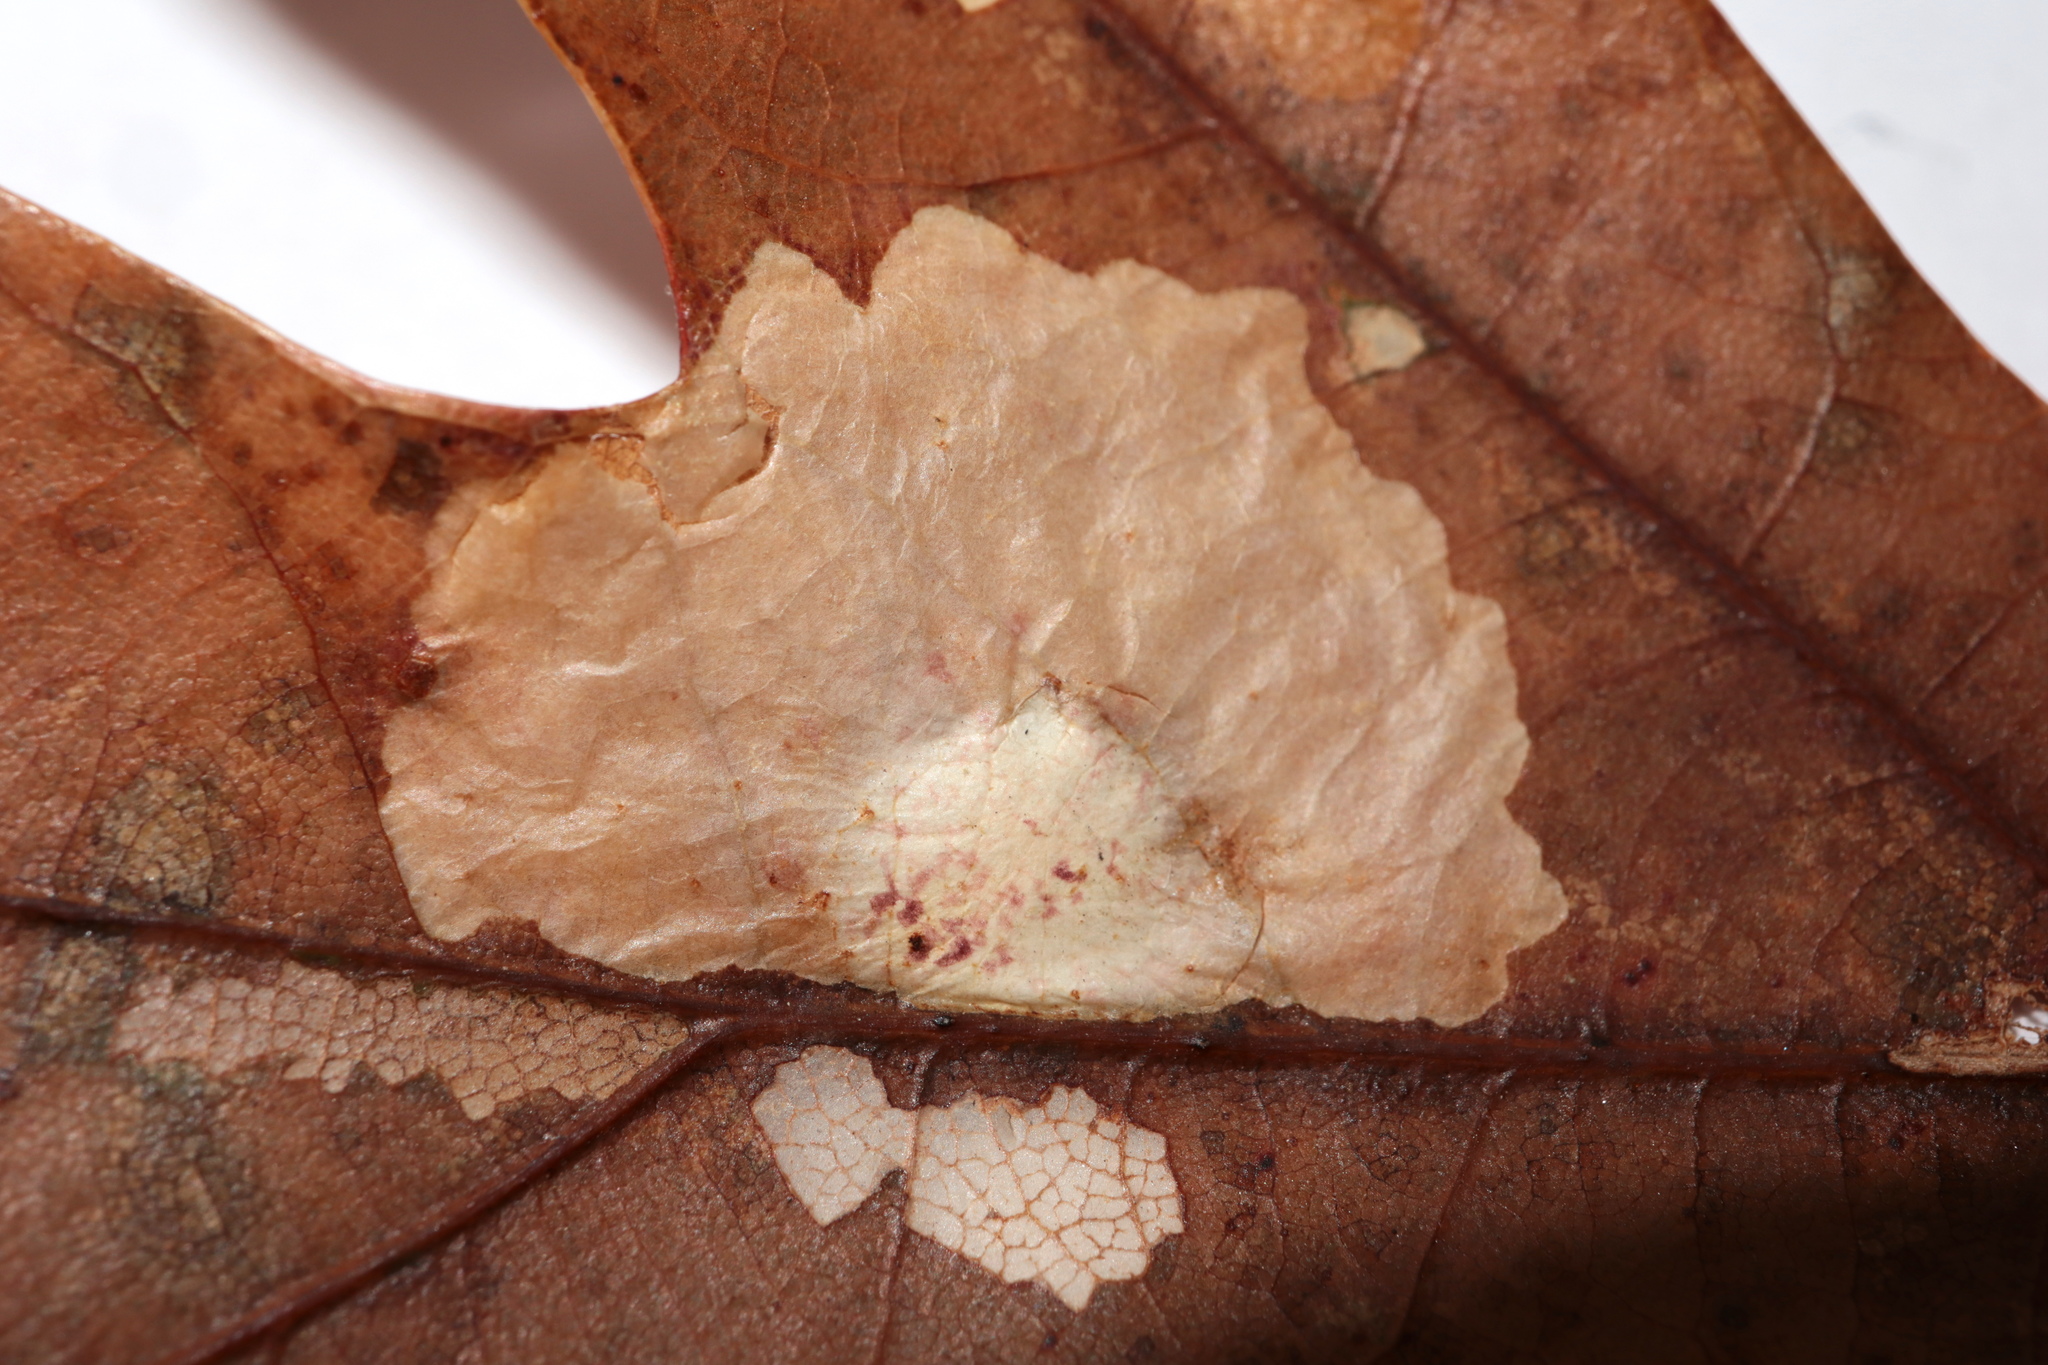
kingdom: Animalia
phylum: Arthropoda
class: Insecta
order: Lepidoptera
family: Tischeriidae
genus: Tischeria
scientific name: Tischeria quercitella
